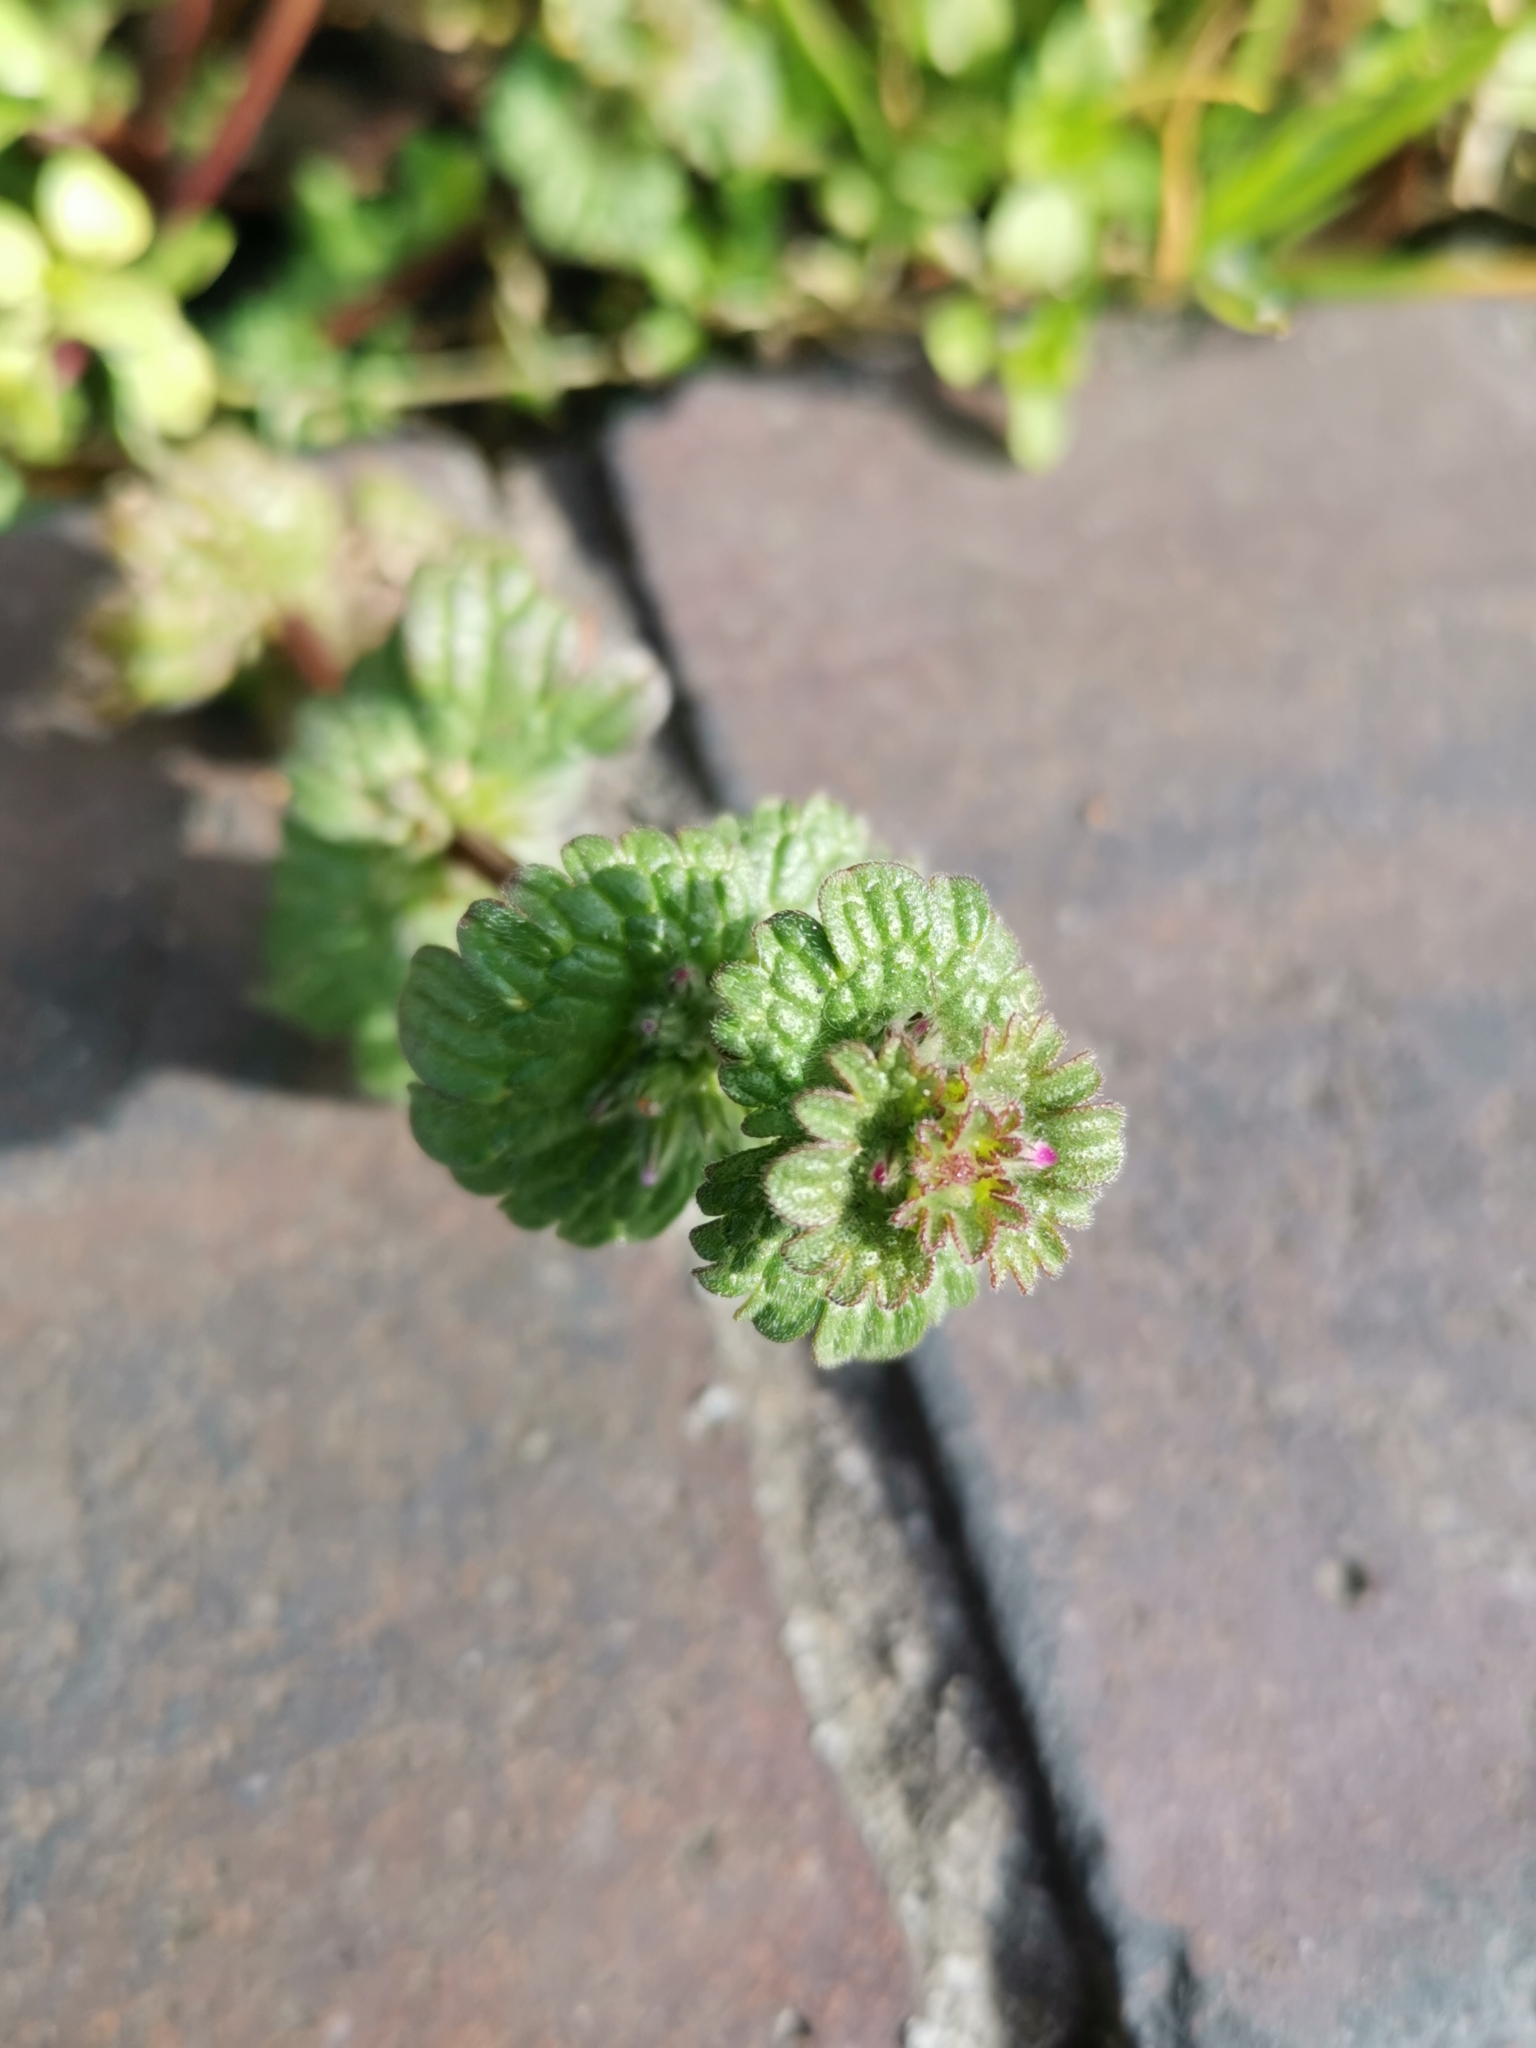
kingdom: Plantae
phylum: Tracheophyta
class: Magnoliopsida
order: Lamiales
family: Lamiaceae
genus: Lamium
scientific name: Lamium amplexicaule
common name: Henbit dead-nettle
